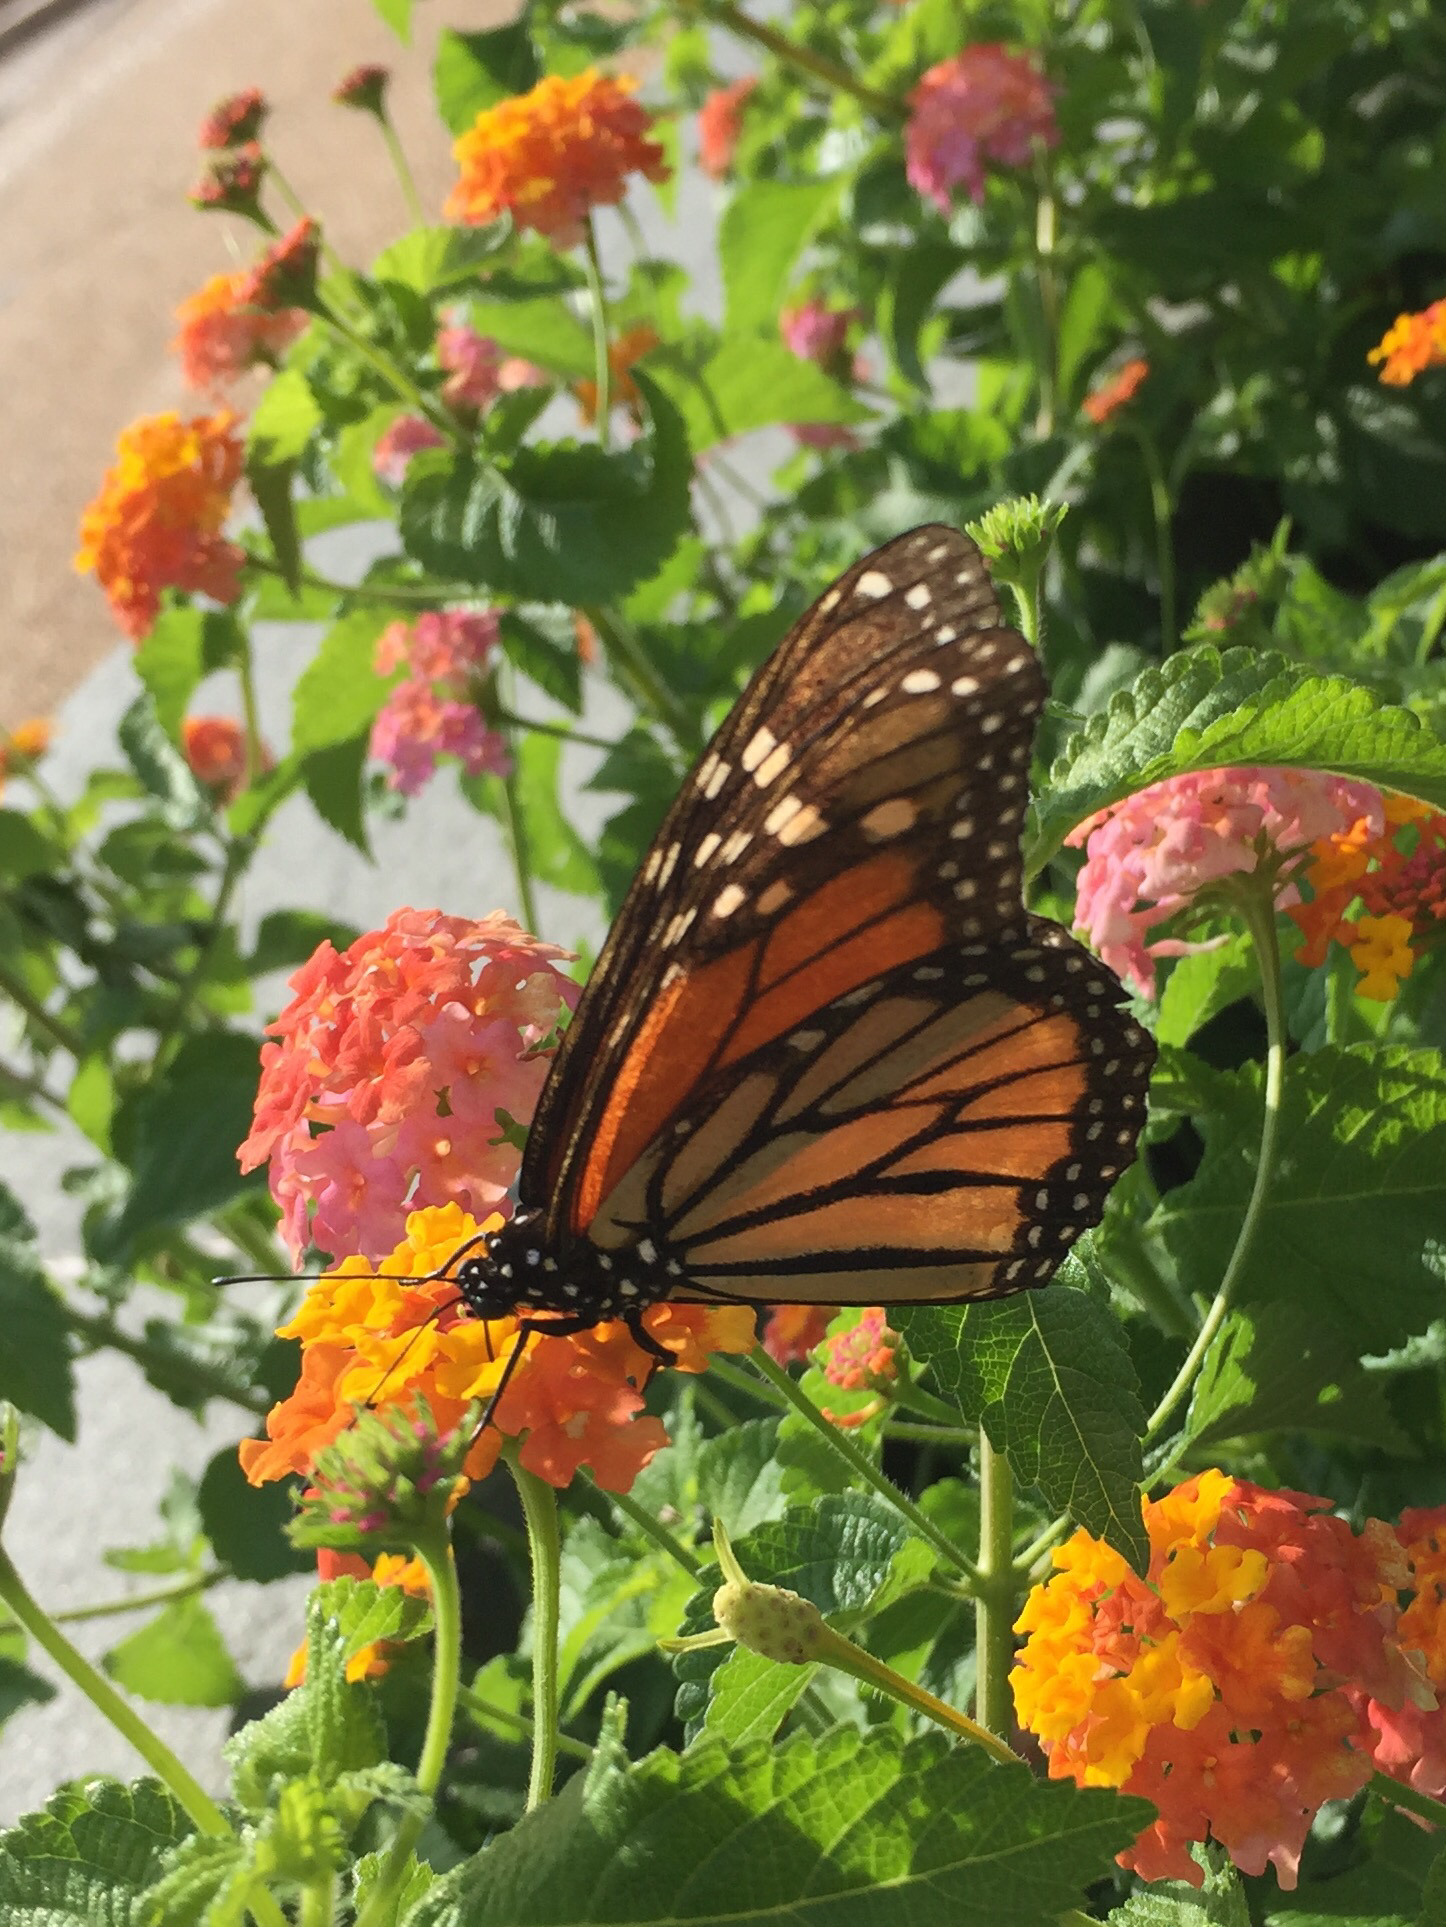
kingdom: Animalia
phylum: Arthropoda
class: Insecta
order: Lepidoptera
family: Nymphalidae
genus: Danaus
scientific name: Danaus plexippus
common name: Monarch
